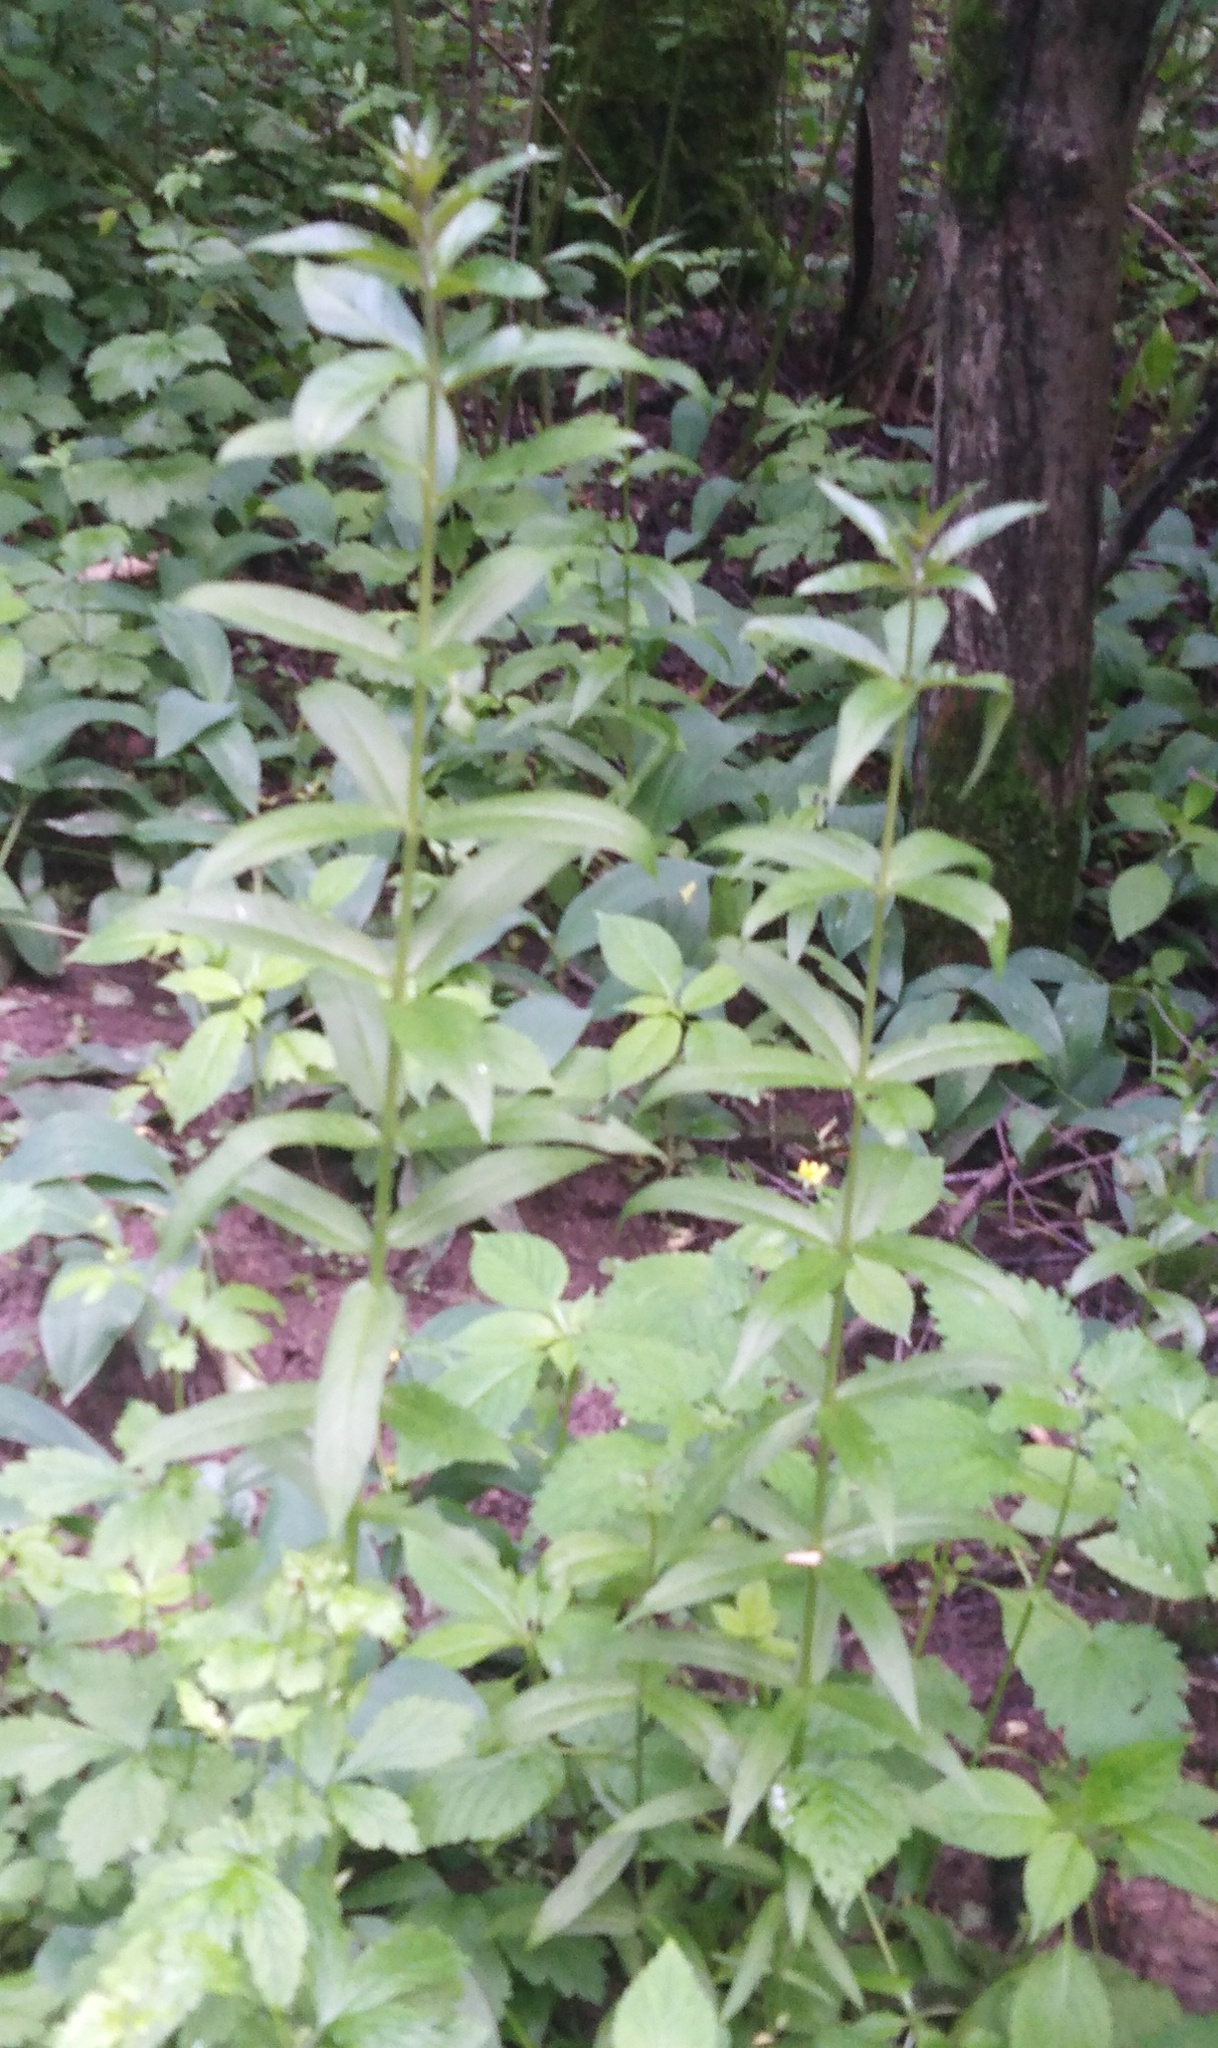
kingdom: Plantae
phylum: Tracheophyta
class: Magnoliopsida
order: Ericales
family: Primulaceae
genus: Lysimachia
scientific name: Lysimachia vulgaris
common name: Yellow loosestrife
